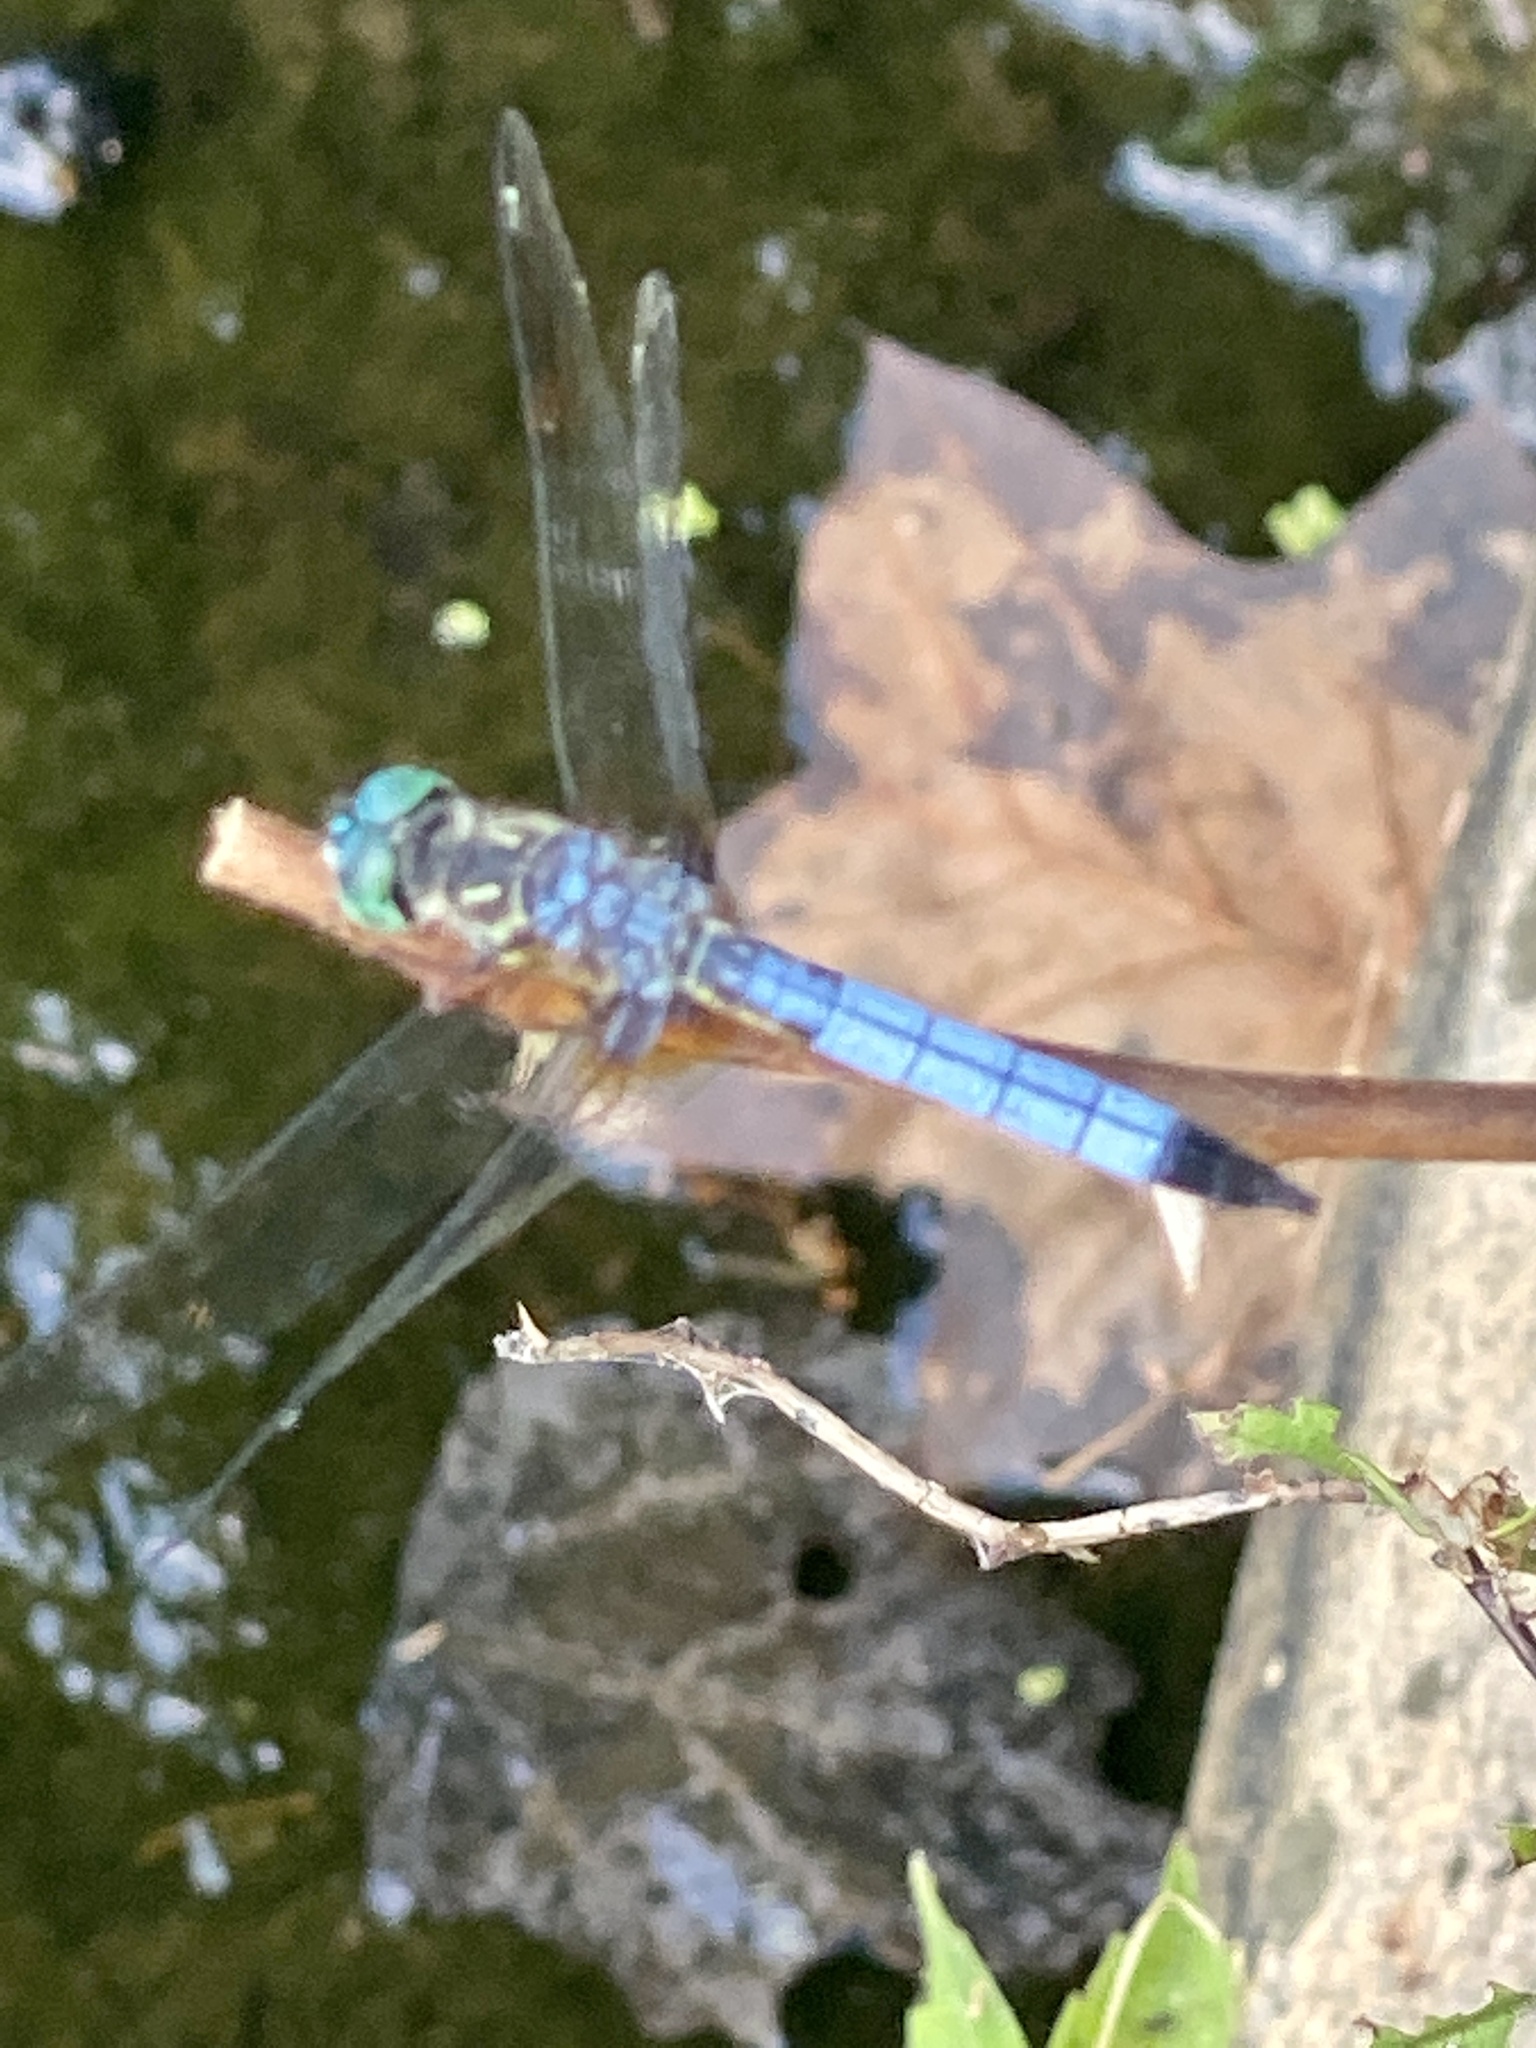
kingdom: Animalia
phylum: Arthropoda
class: Insecta
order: Odonata
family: Libellulidae
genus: Pachydiplax
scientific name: Pachydiplax longipennis
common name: Blue dasher
